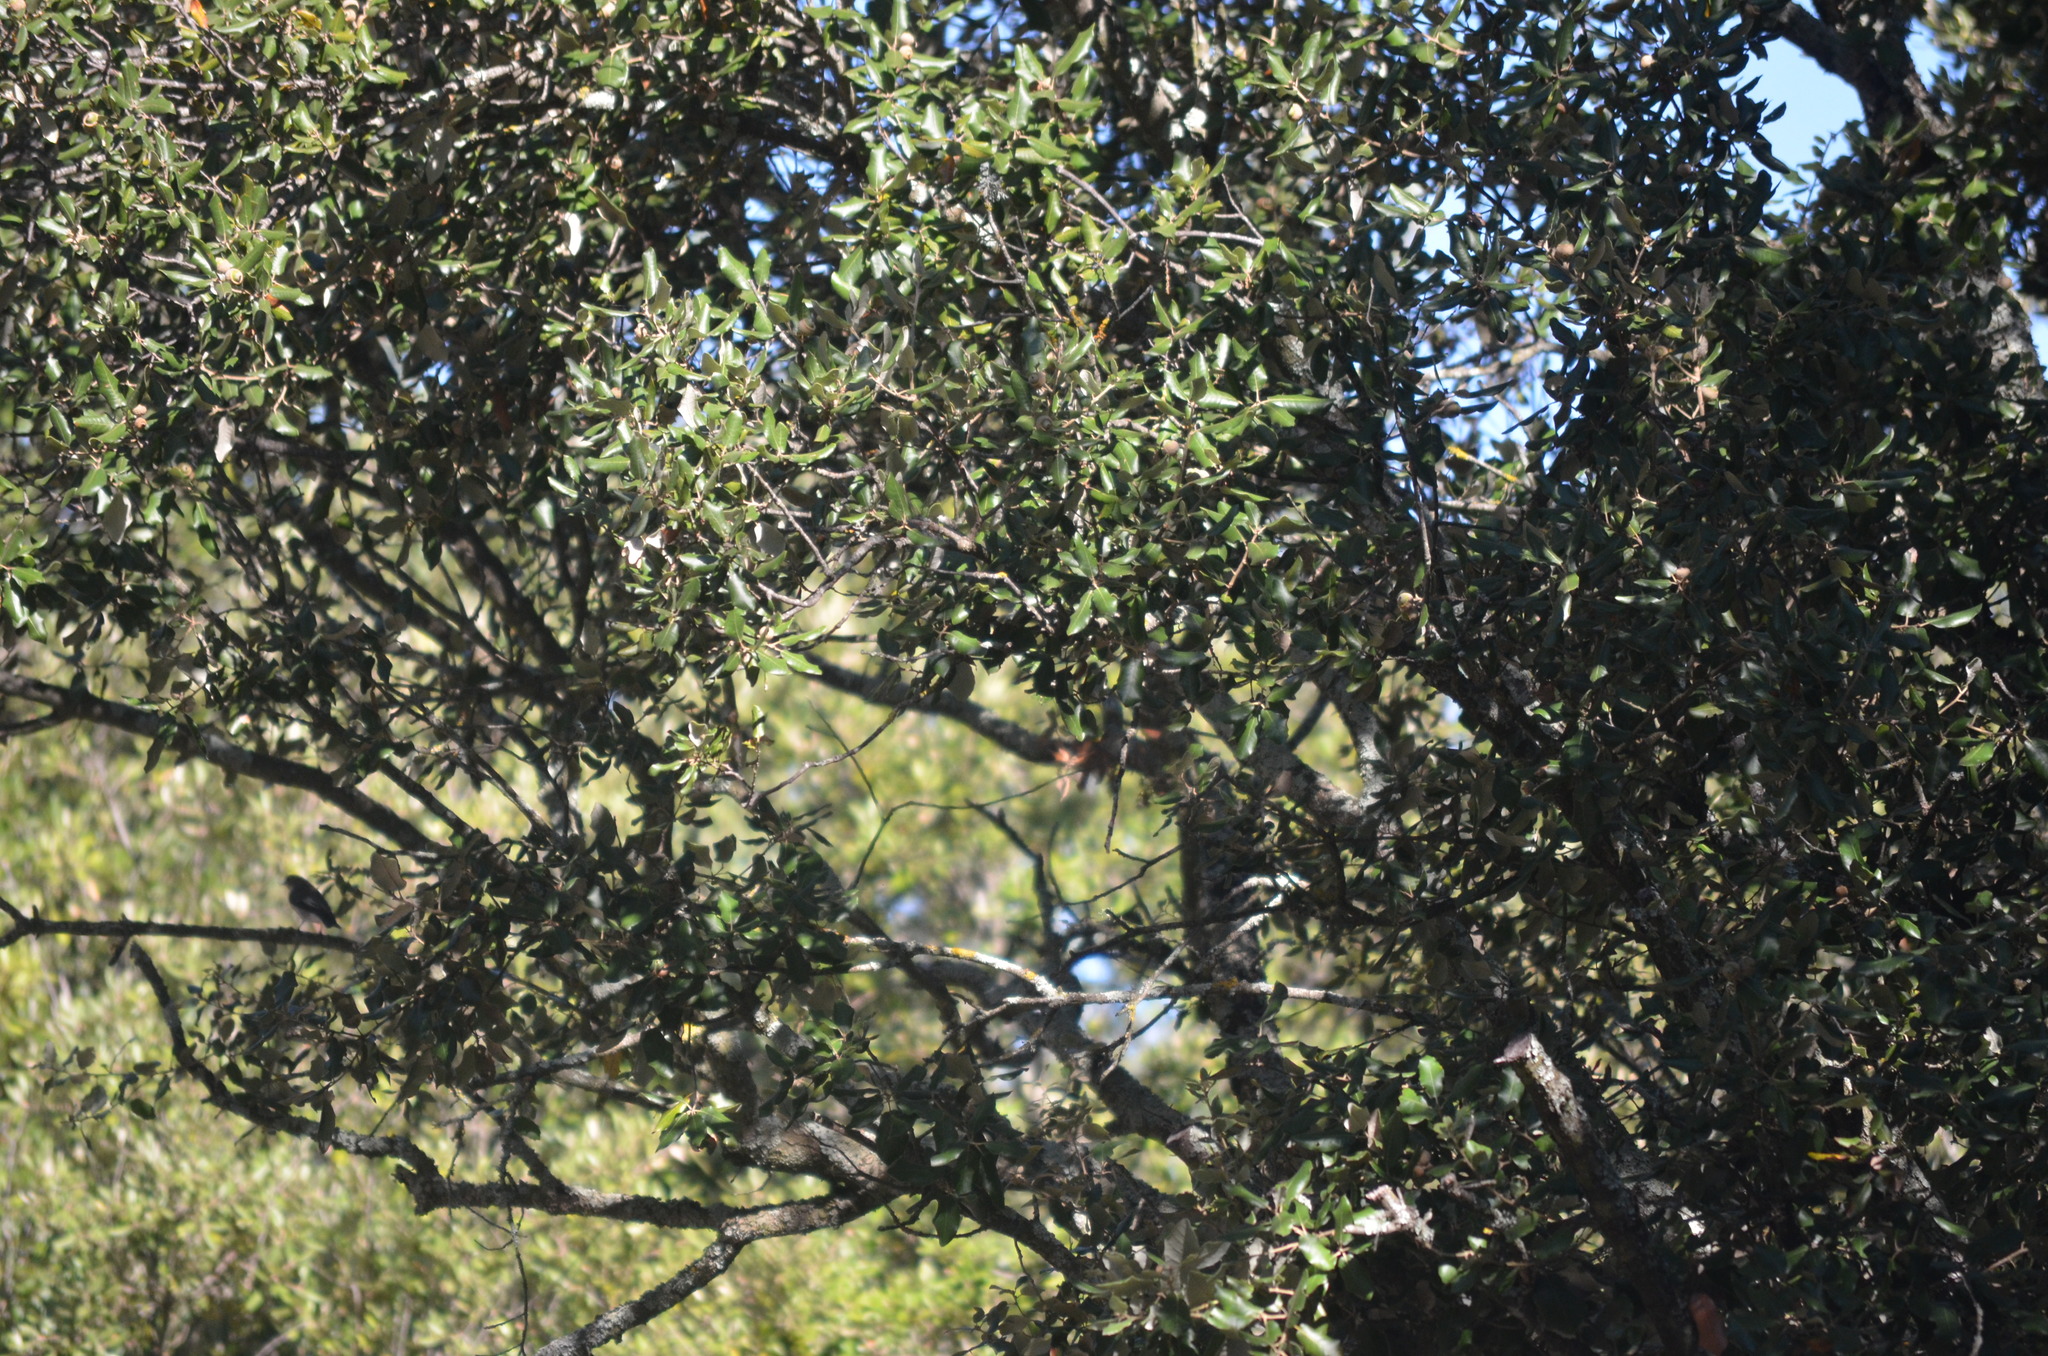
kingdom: Plantae
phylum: Tracheophyta
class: Magnoliopsida
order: Fagales
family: Fagaceae
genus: Quercus
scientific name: Quercus ilex
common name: Evergreen oak
